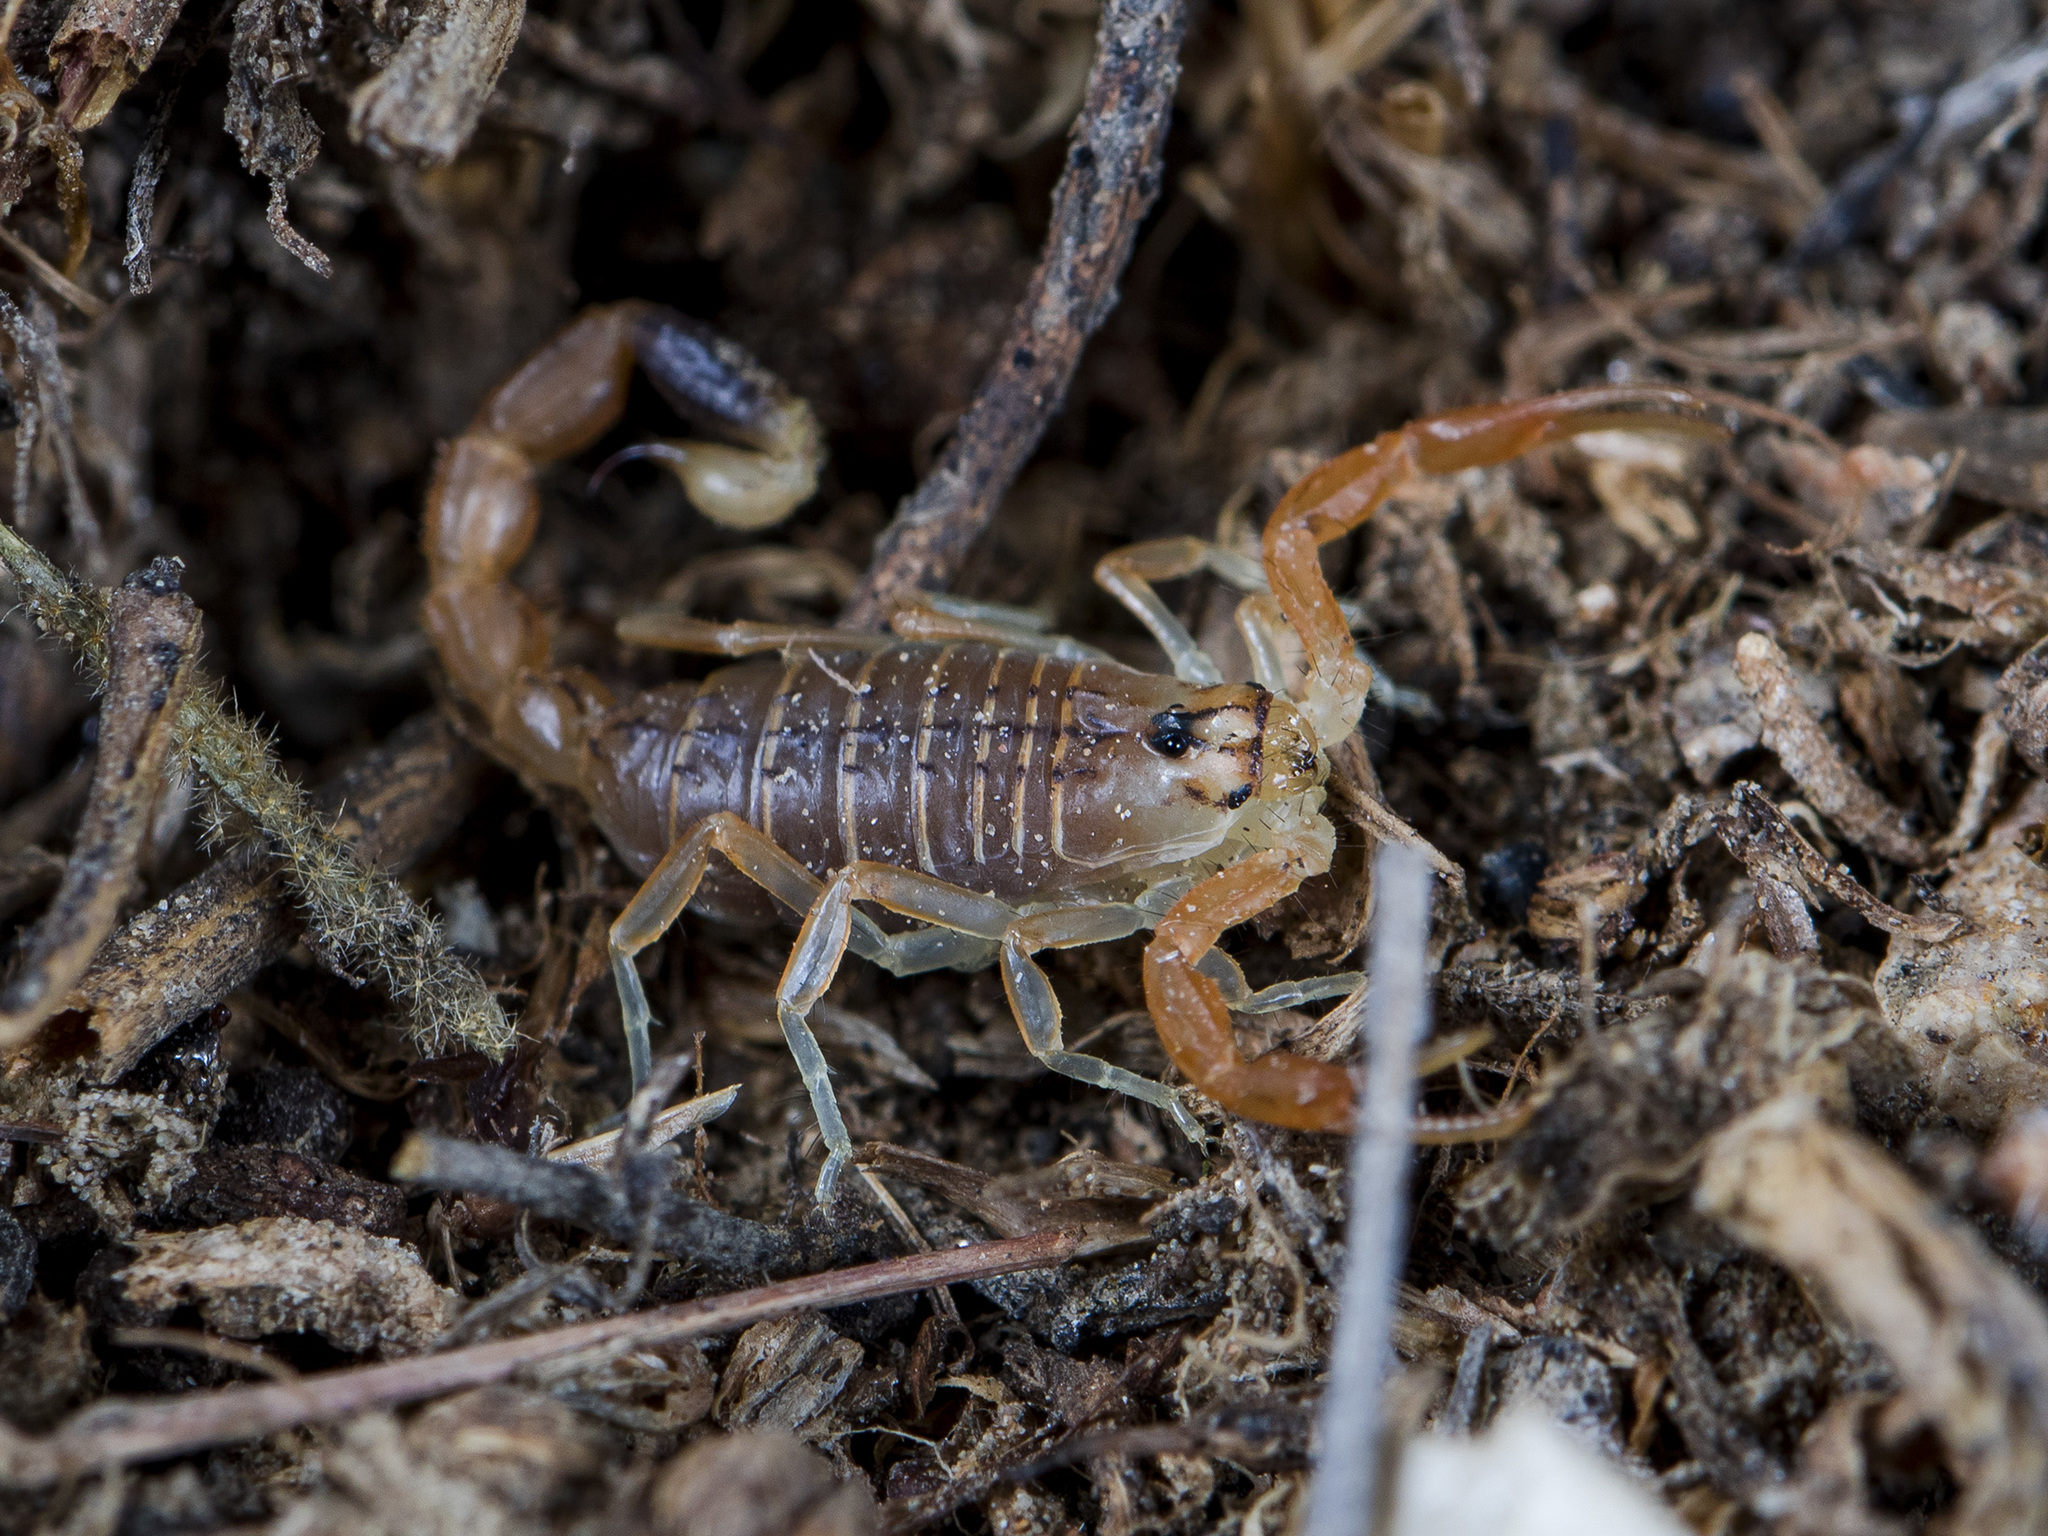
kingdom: Animalia
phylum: Arthropoda
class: Arachnida
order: Scorpiones
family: Buthidae
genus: Olivierus
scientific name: Olivierus caucasicus
